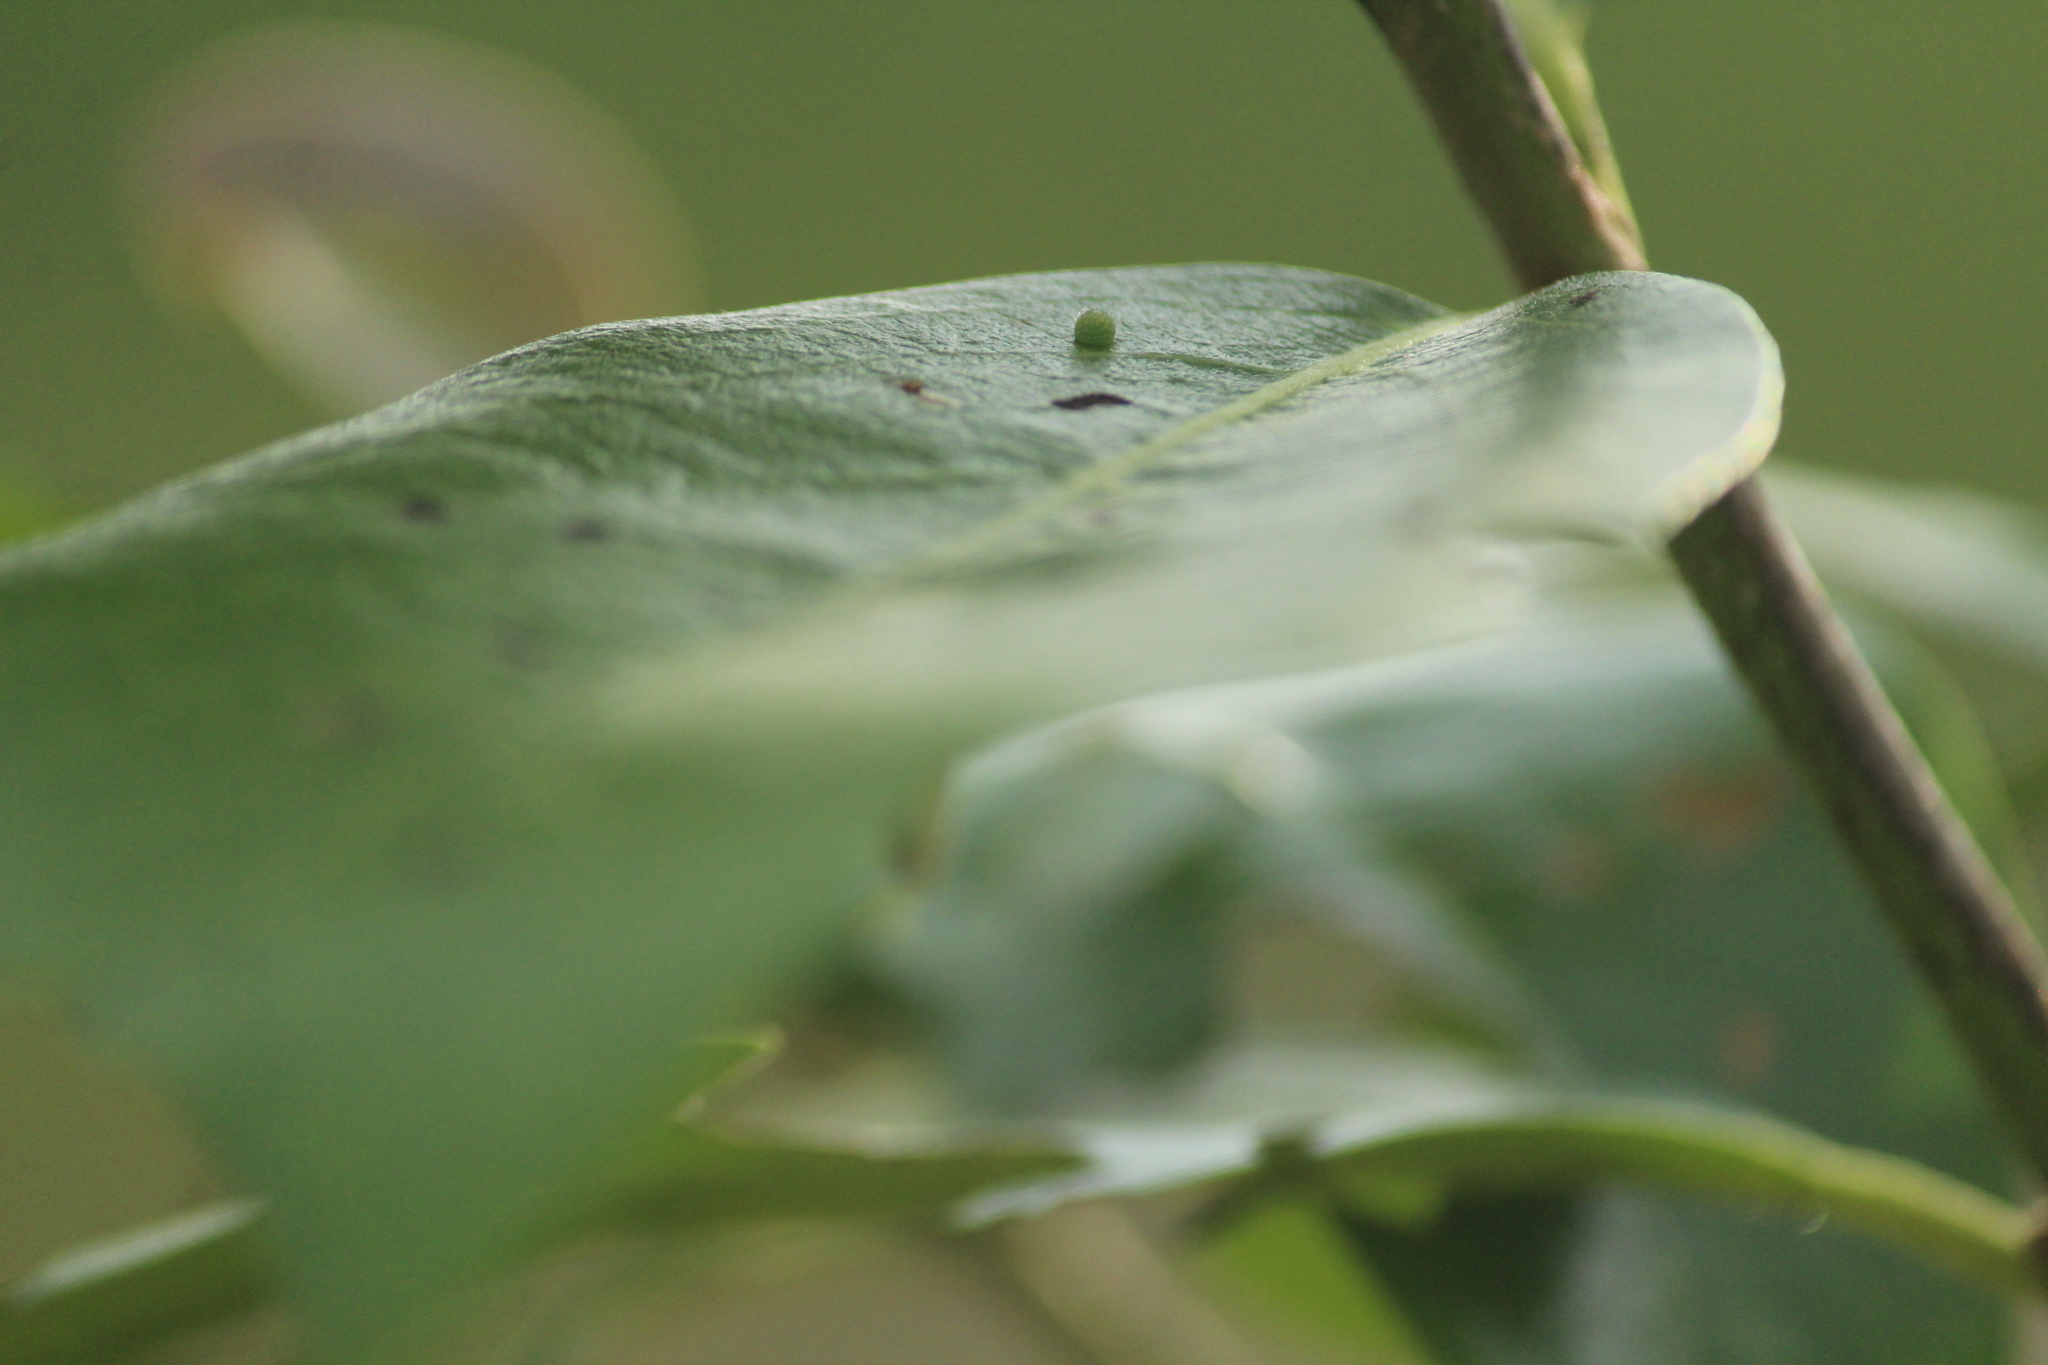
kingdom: Animalia
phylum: Arthropoda
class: Insecta
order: Lepidoptera
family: Nymphalidae
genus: Euthalia
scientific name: Euthalia nais
